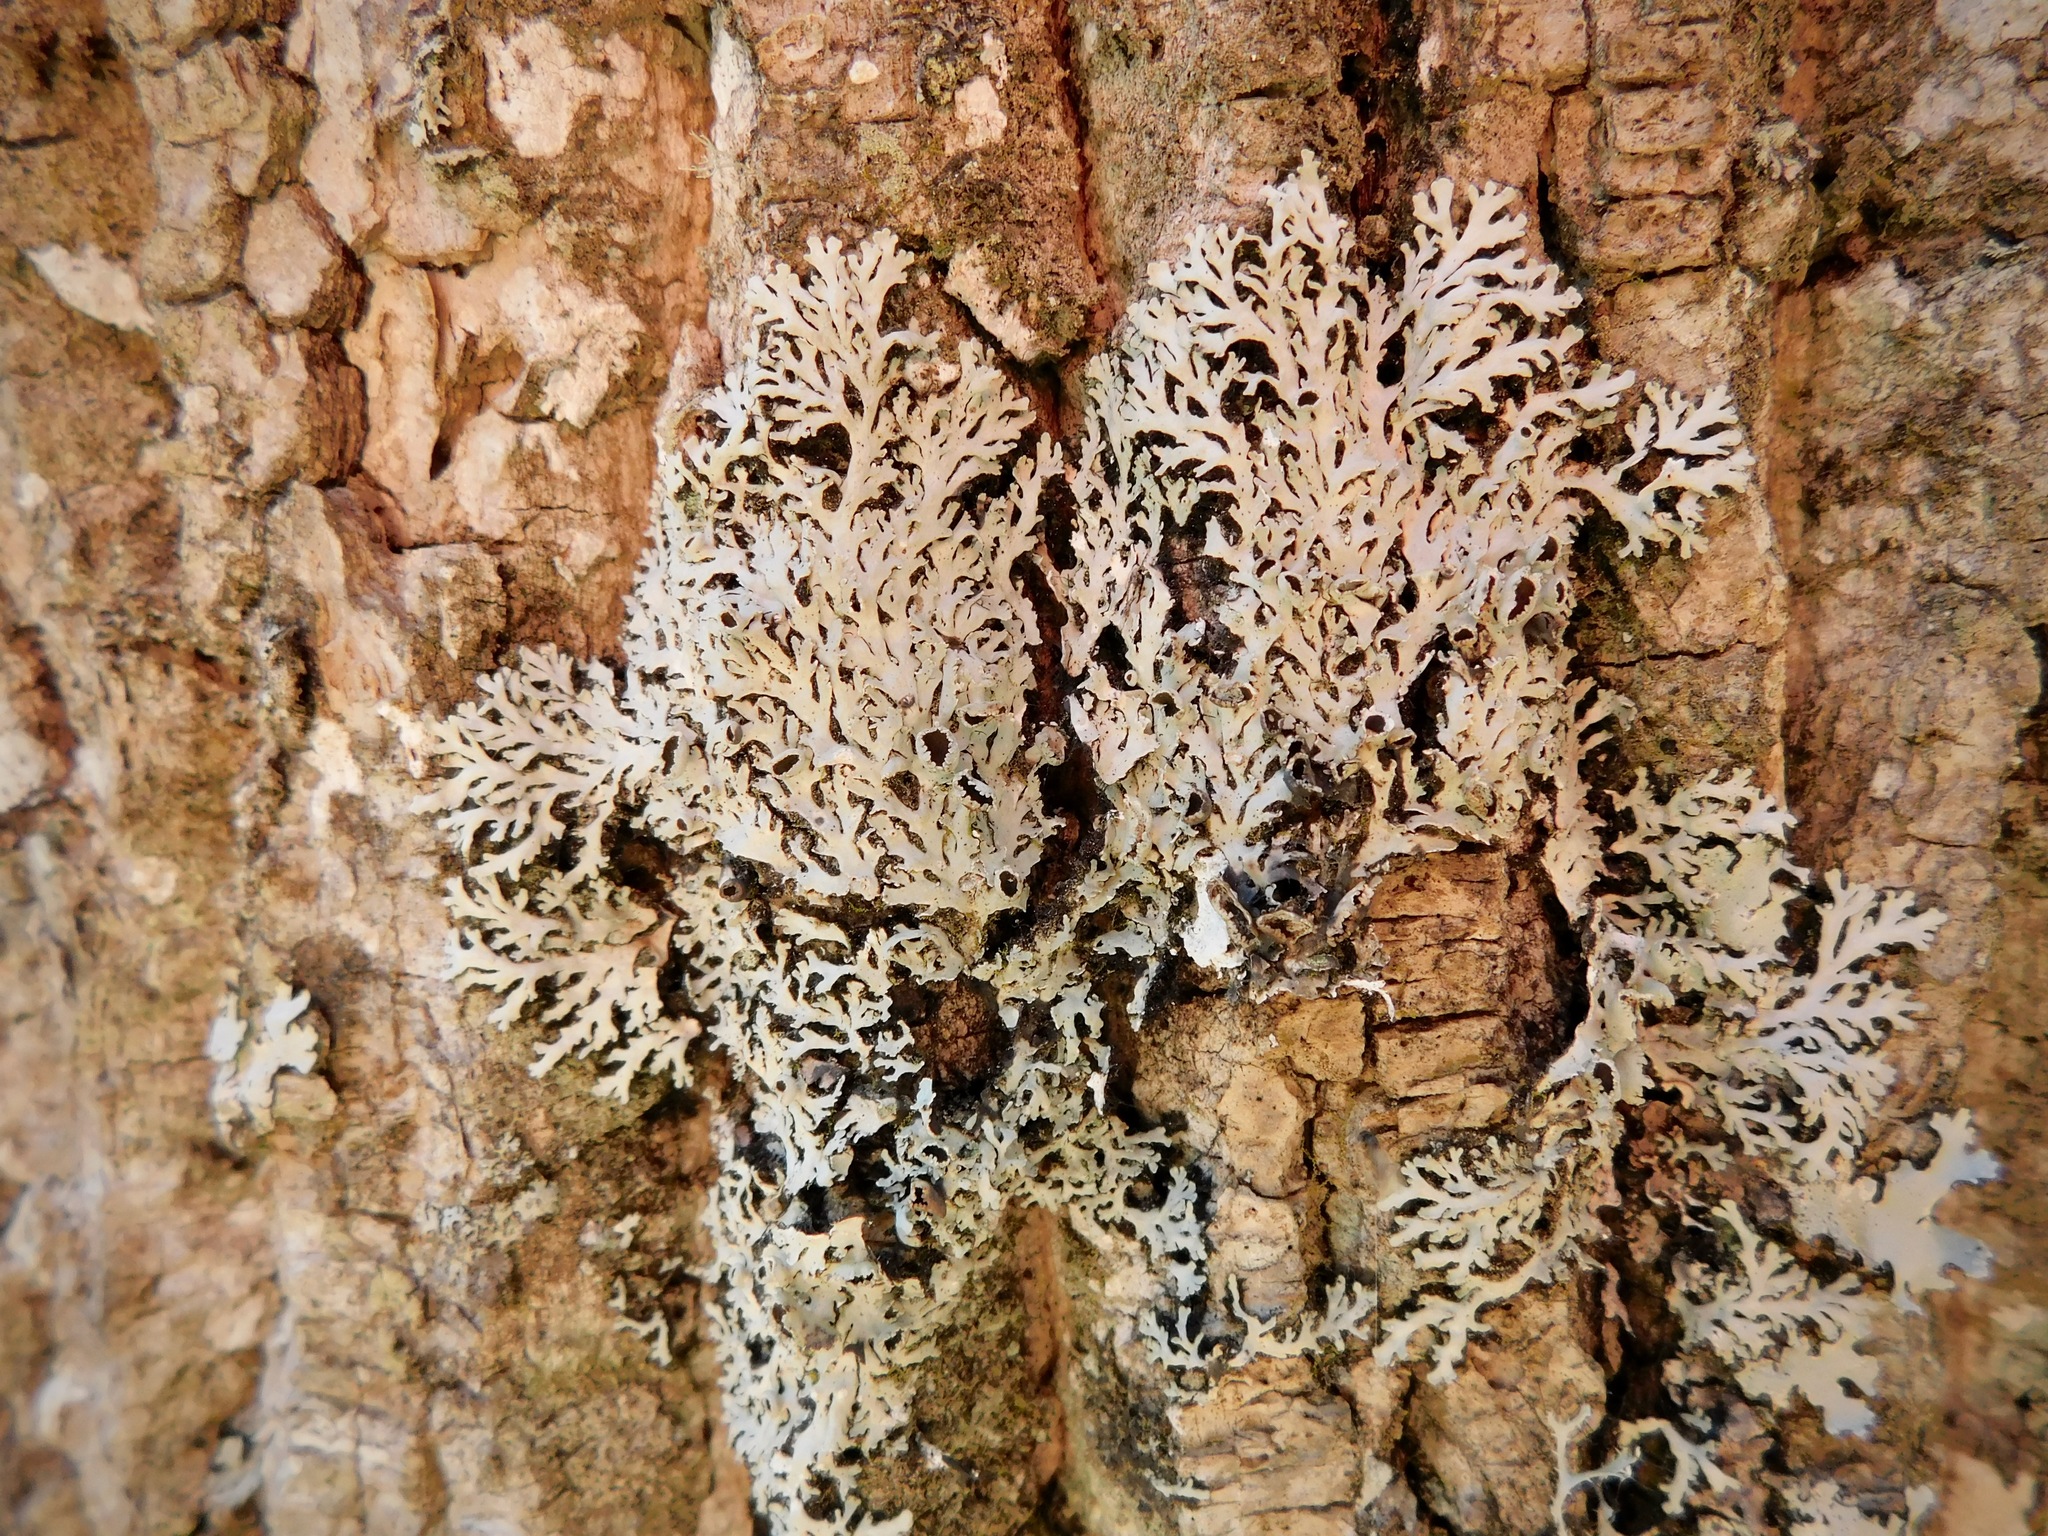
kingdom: Fungi
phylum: Ascomycota
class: Lecanoromycetes
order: Caliciales
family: Physciaceae
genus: Polyblastidium
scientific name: Polyblastidium hypoleucum
